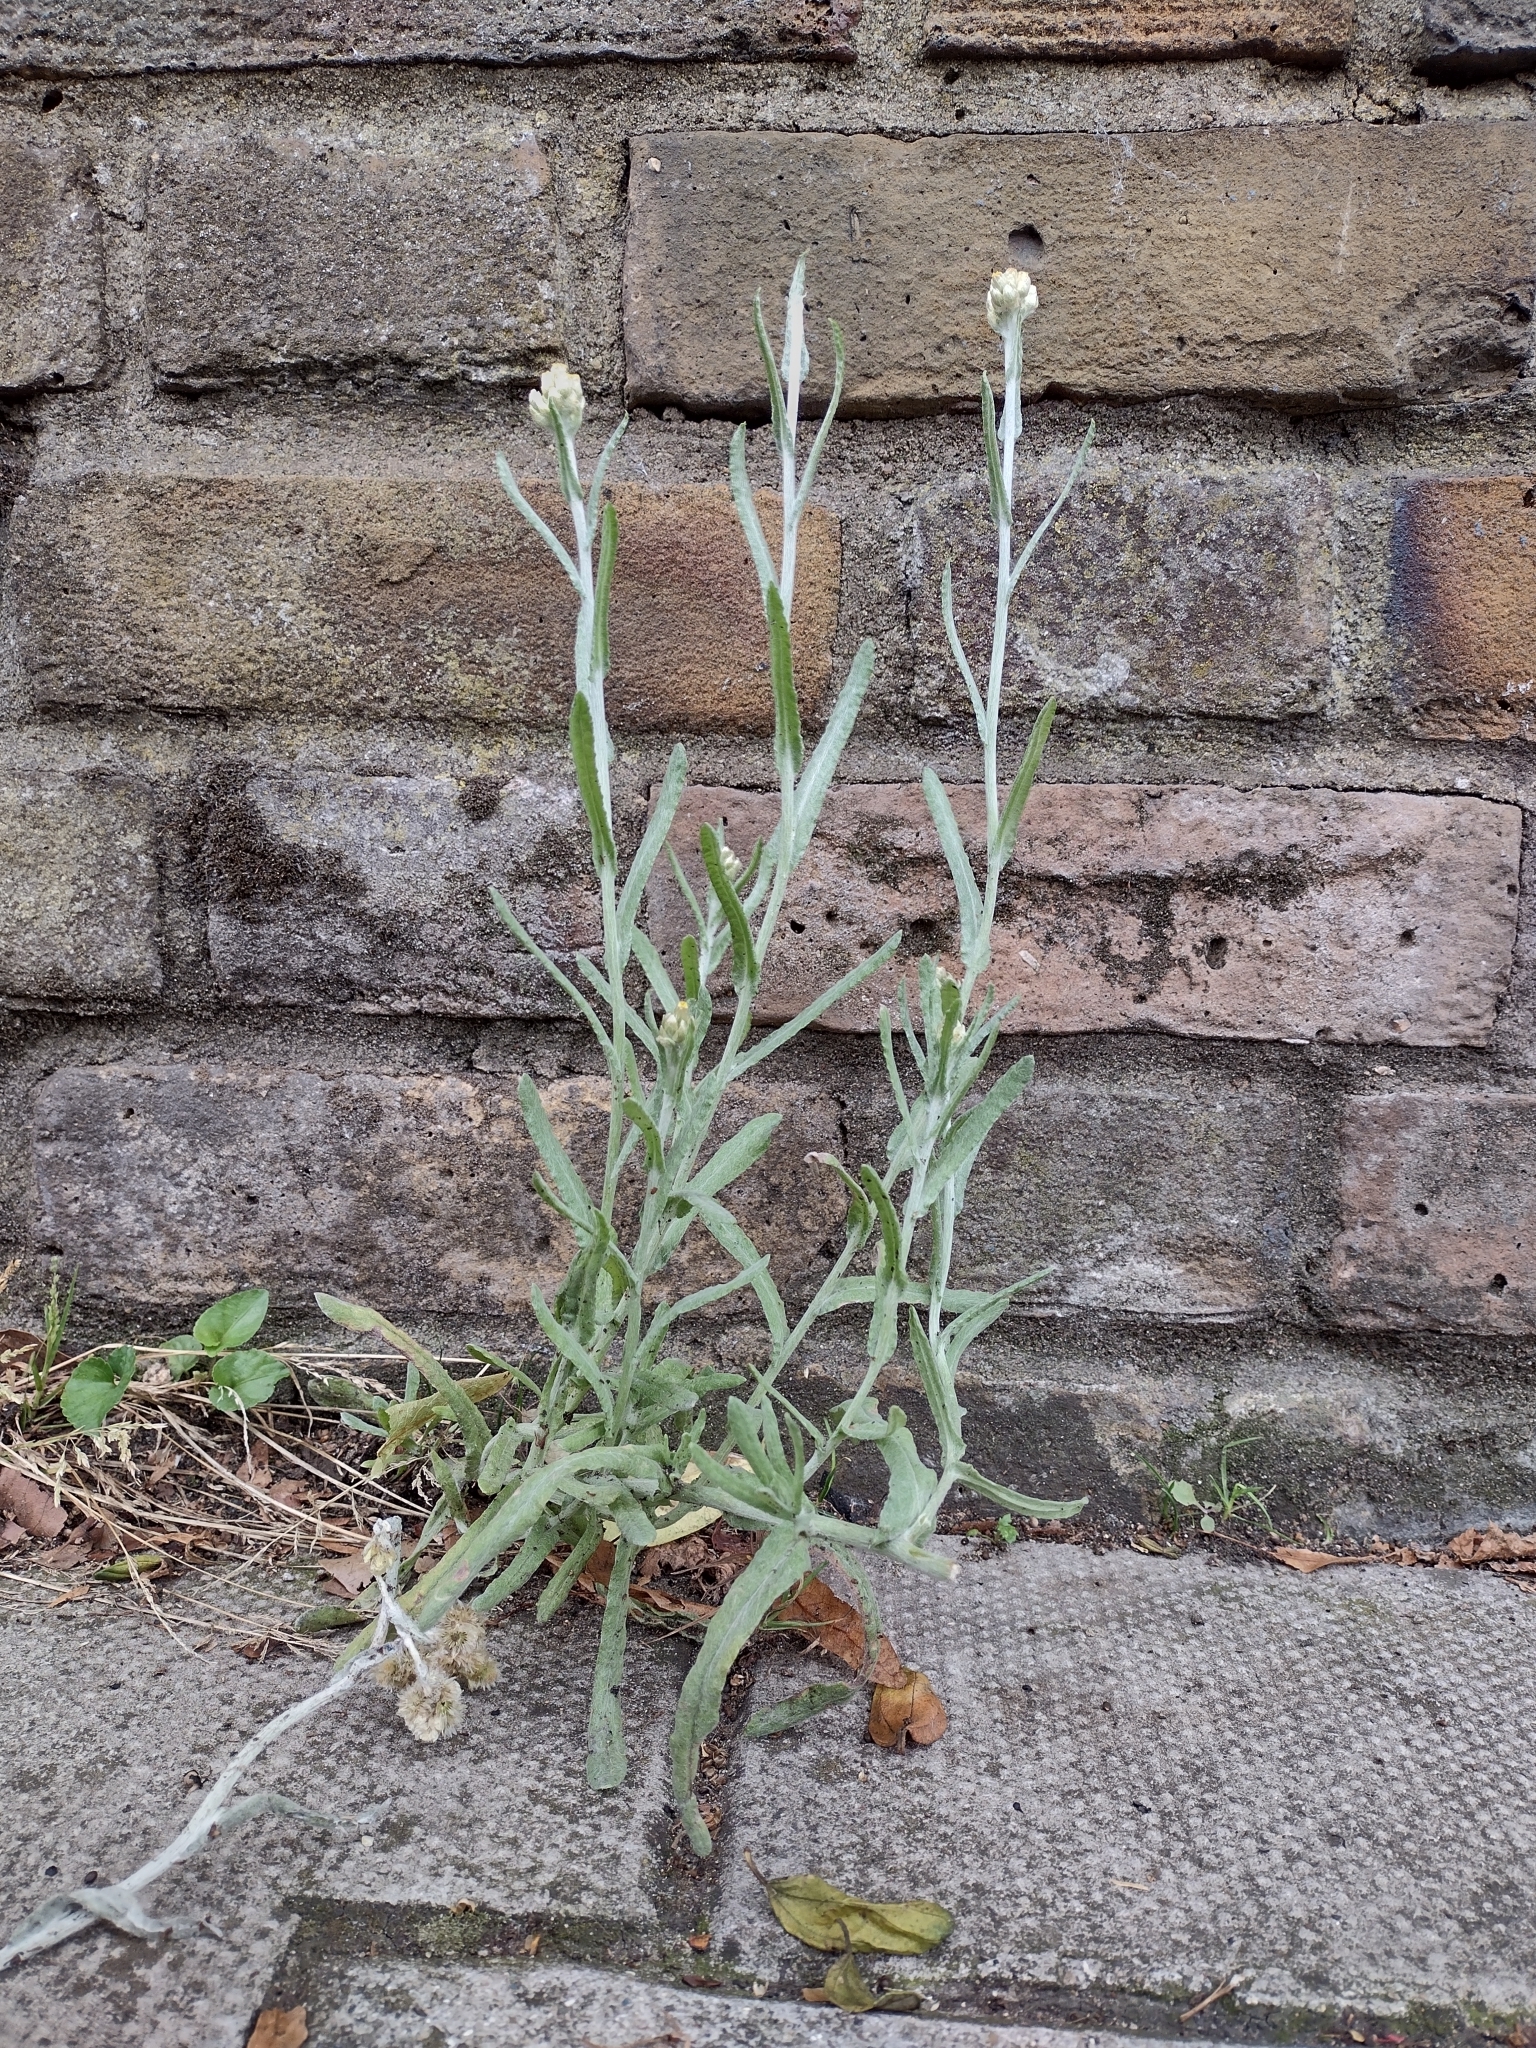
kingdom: Plantae
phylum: Tracheophyta
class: Magnoliopsida
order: Asterales
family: Asteraceae
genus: Helichrysum
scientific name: Helichrysum luteoalbum
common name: Daisy
